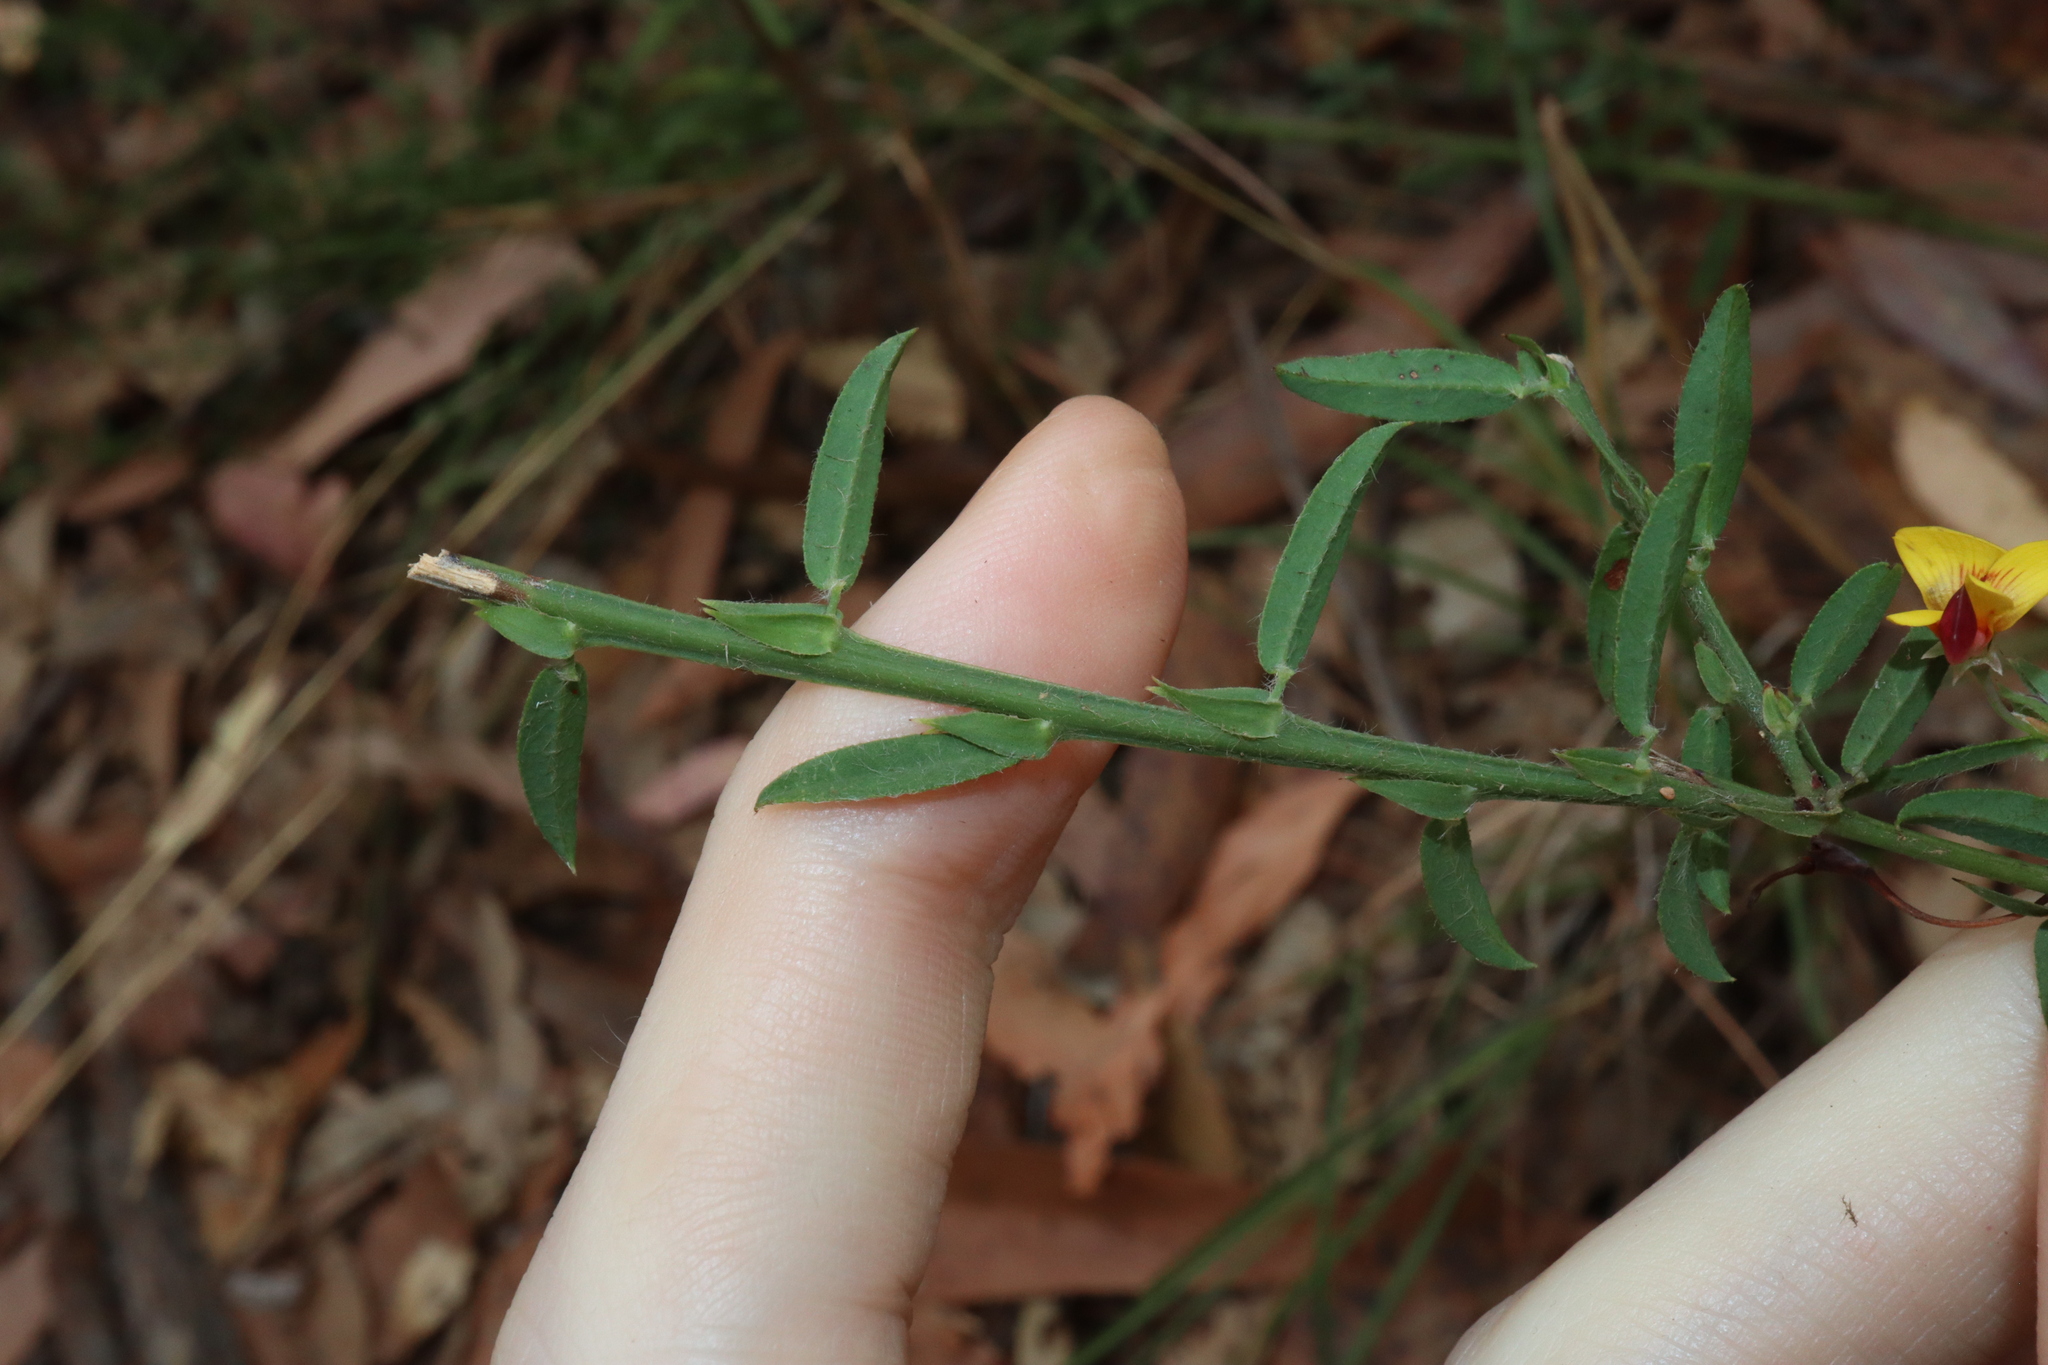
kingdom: Plantae
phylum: Tracheophyta
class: Magnoliopsida
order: Fabales
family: Fabaceae
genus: Bossiaea
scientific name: Bossiaea stephensonii
